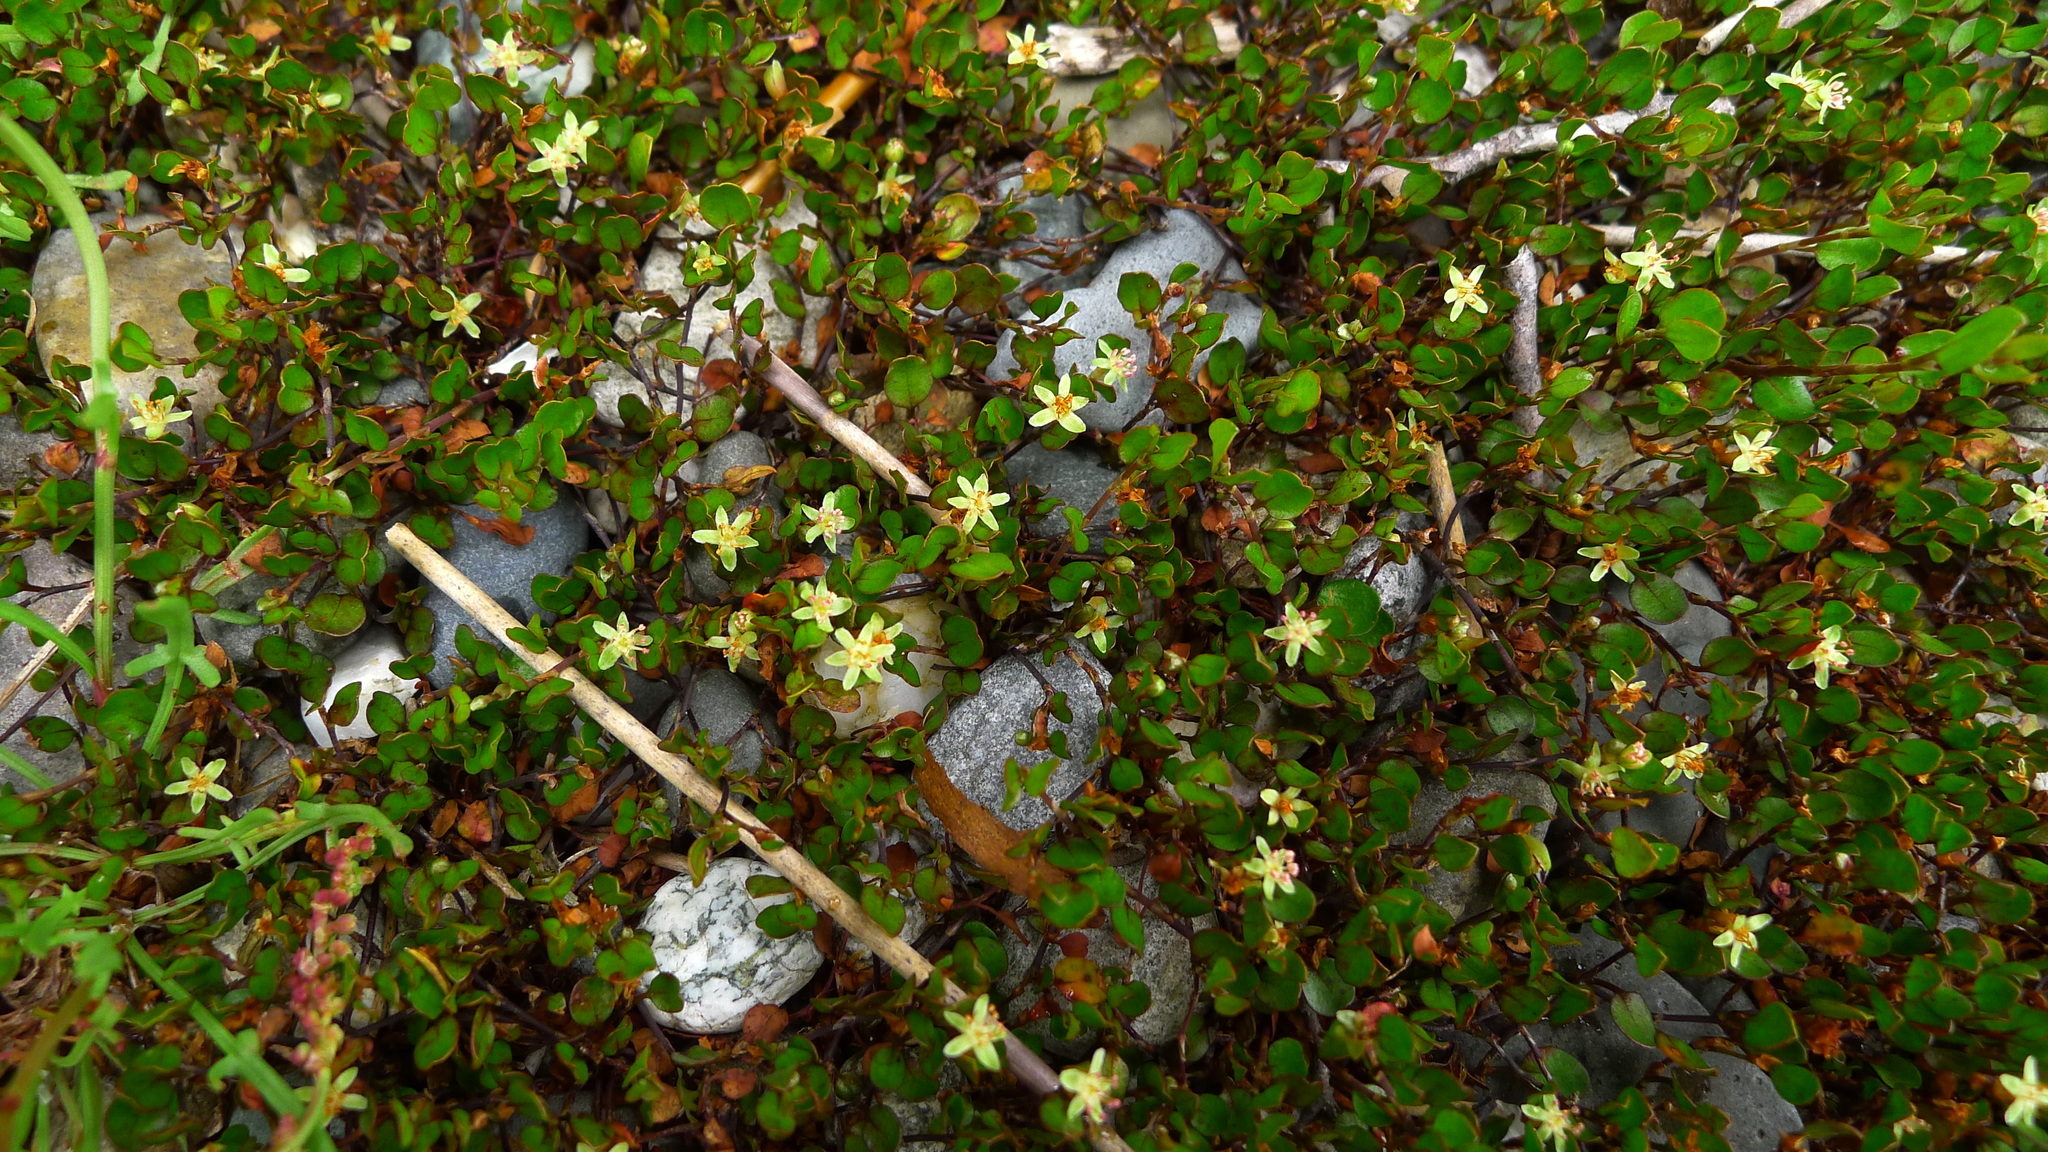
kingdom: Plantae
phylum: Tracheophyta
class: Magnoliopsida
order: Caryophyllales
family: Polygonaceae
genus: Muehlenbeckia
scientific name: Muehlenbeckia axillaris
